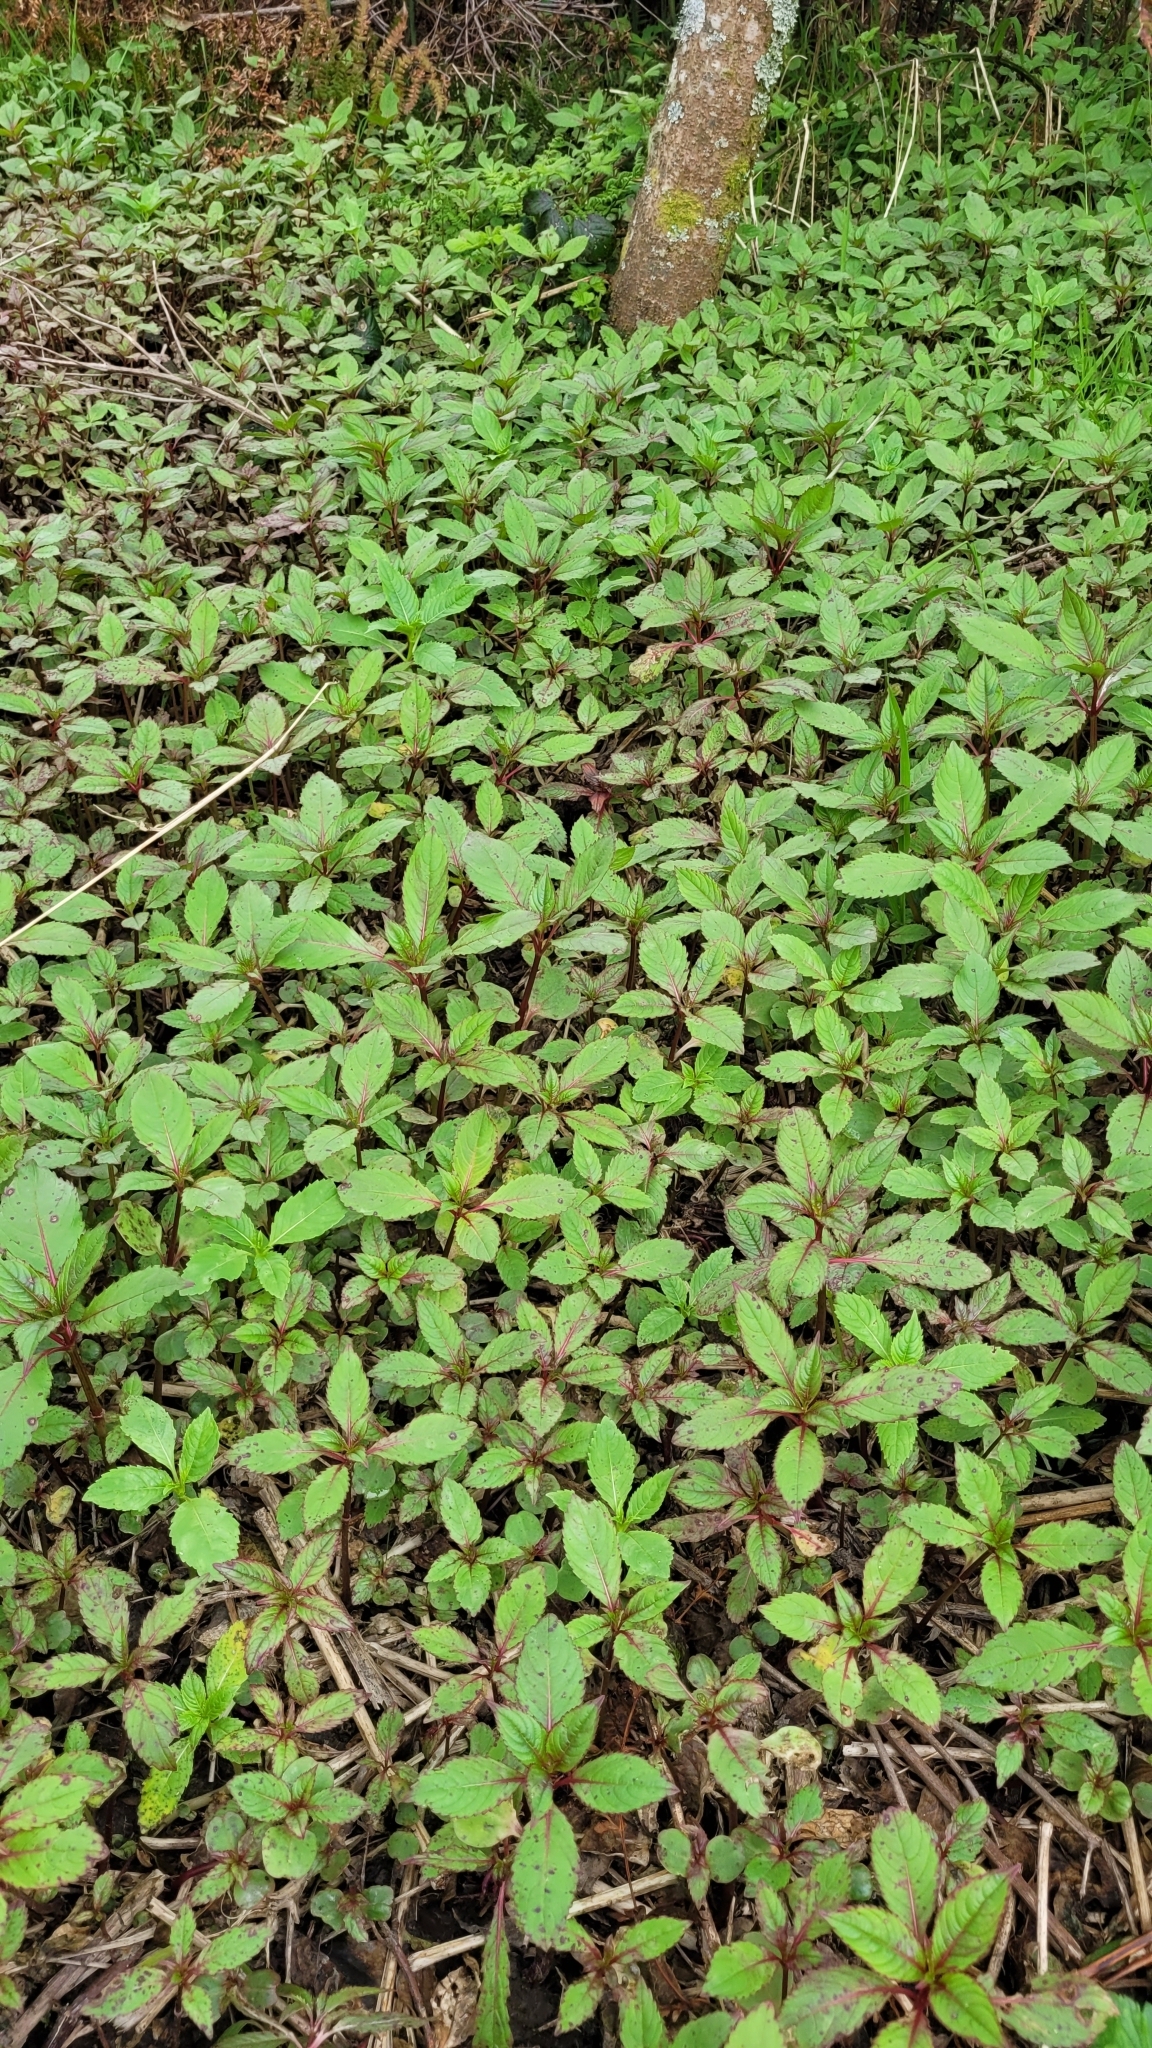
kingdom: Plantae
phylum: Tracheophyta
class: Magnoliopsida
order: Ericales
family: Balsaminaceae
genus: Impatiens
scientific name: Impatiens glandulifera
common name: Himalayan balsam
